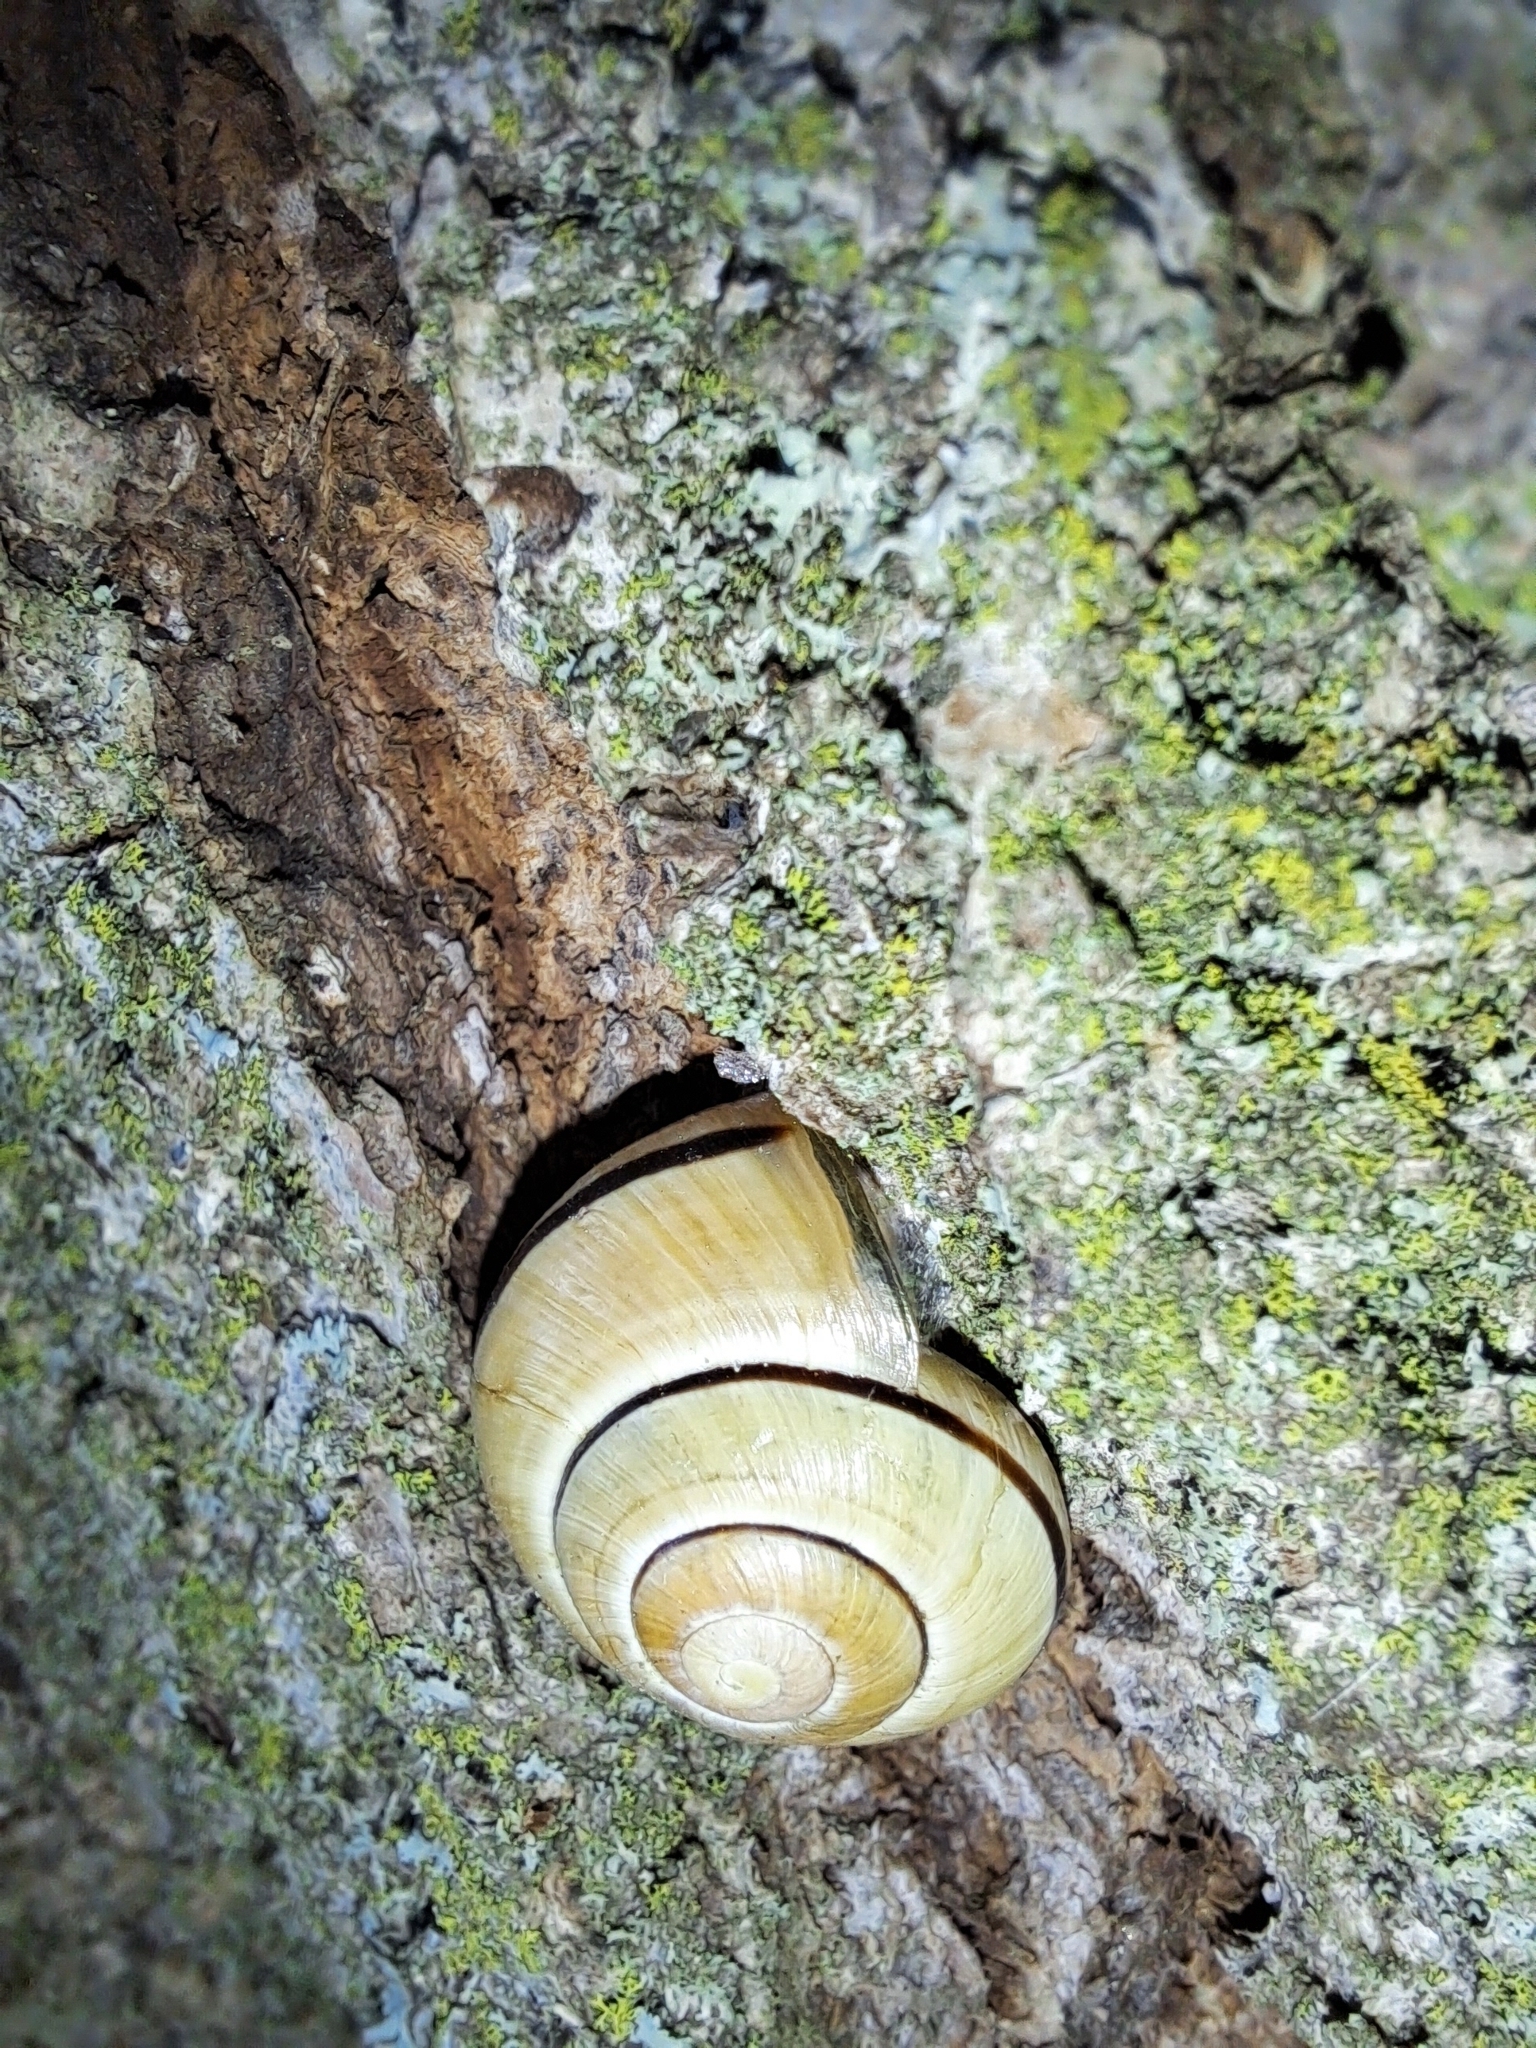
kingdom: Animalia
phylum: Mollusca
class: Gastropoda
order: Stylommatophora
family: Helicidae
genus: Cepaea
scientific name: Cepaea nemoralis
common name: Grovesnail
